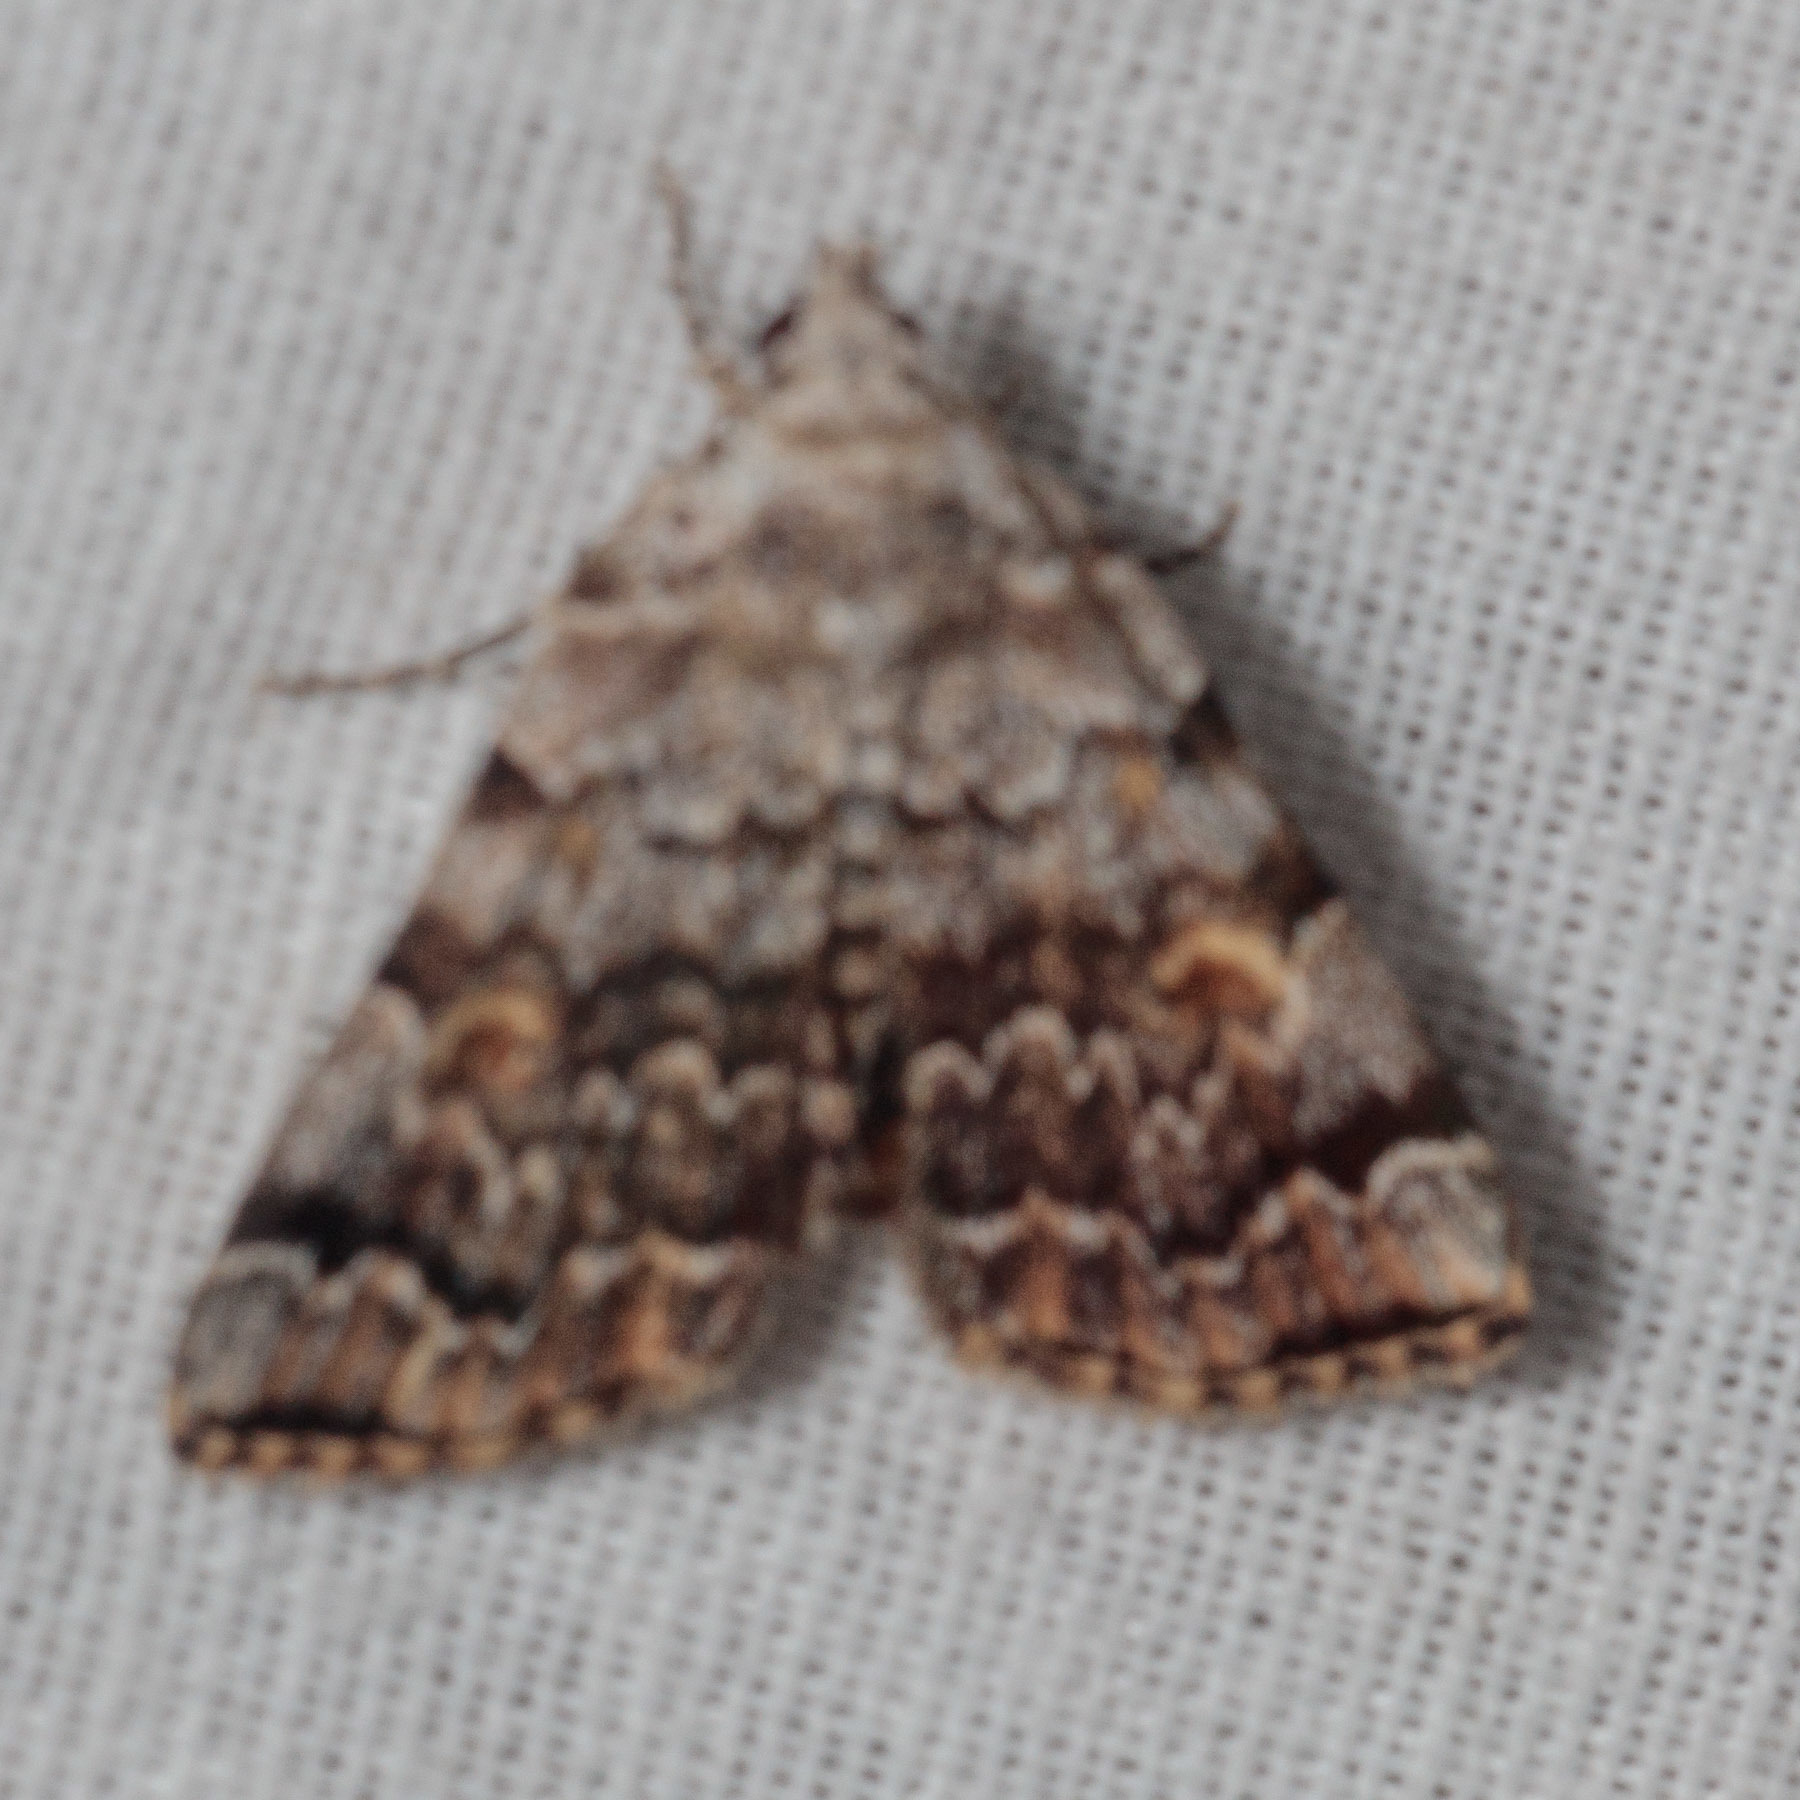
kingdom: Animalia
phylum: Arthropoda
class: Insecta
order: Lepidoptera
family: Erebidae
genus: Idia
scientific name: Idia americalis
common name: American idia moth
